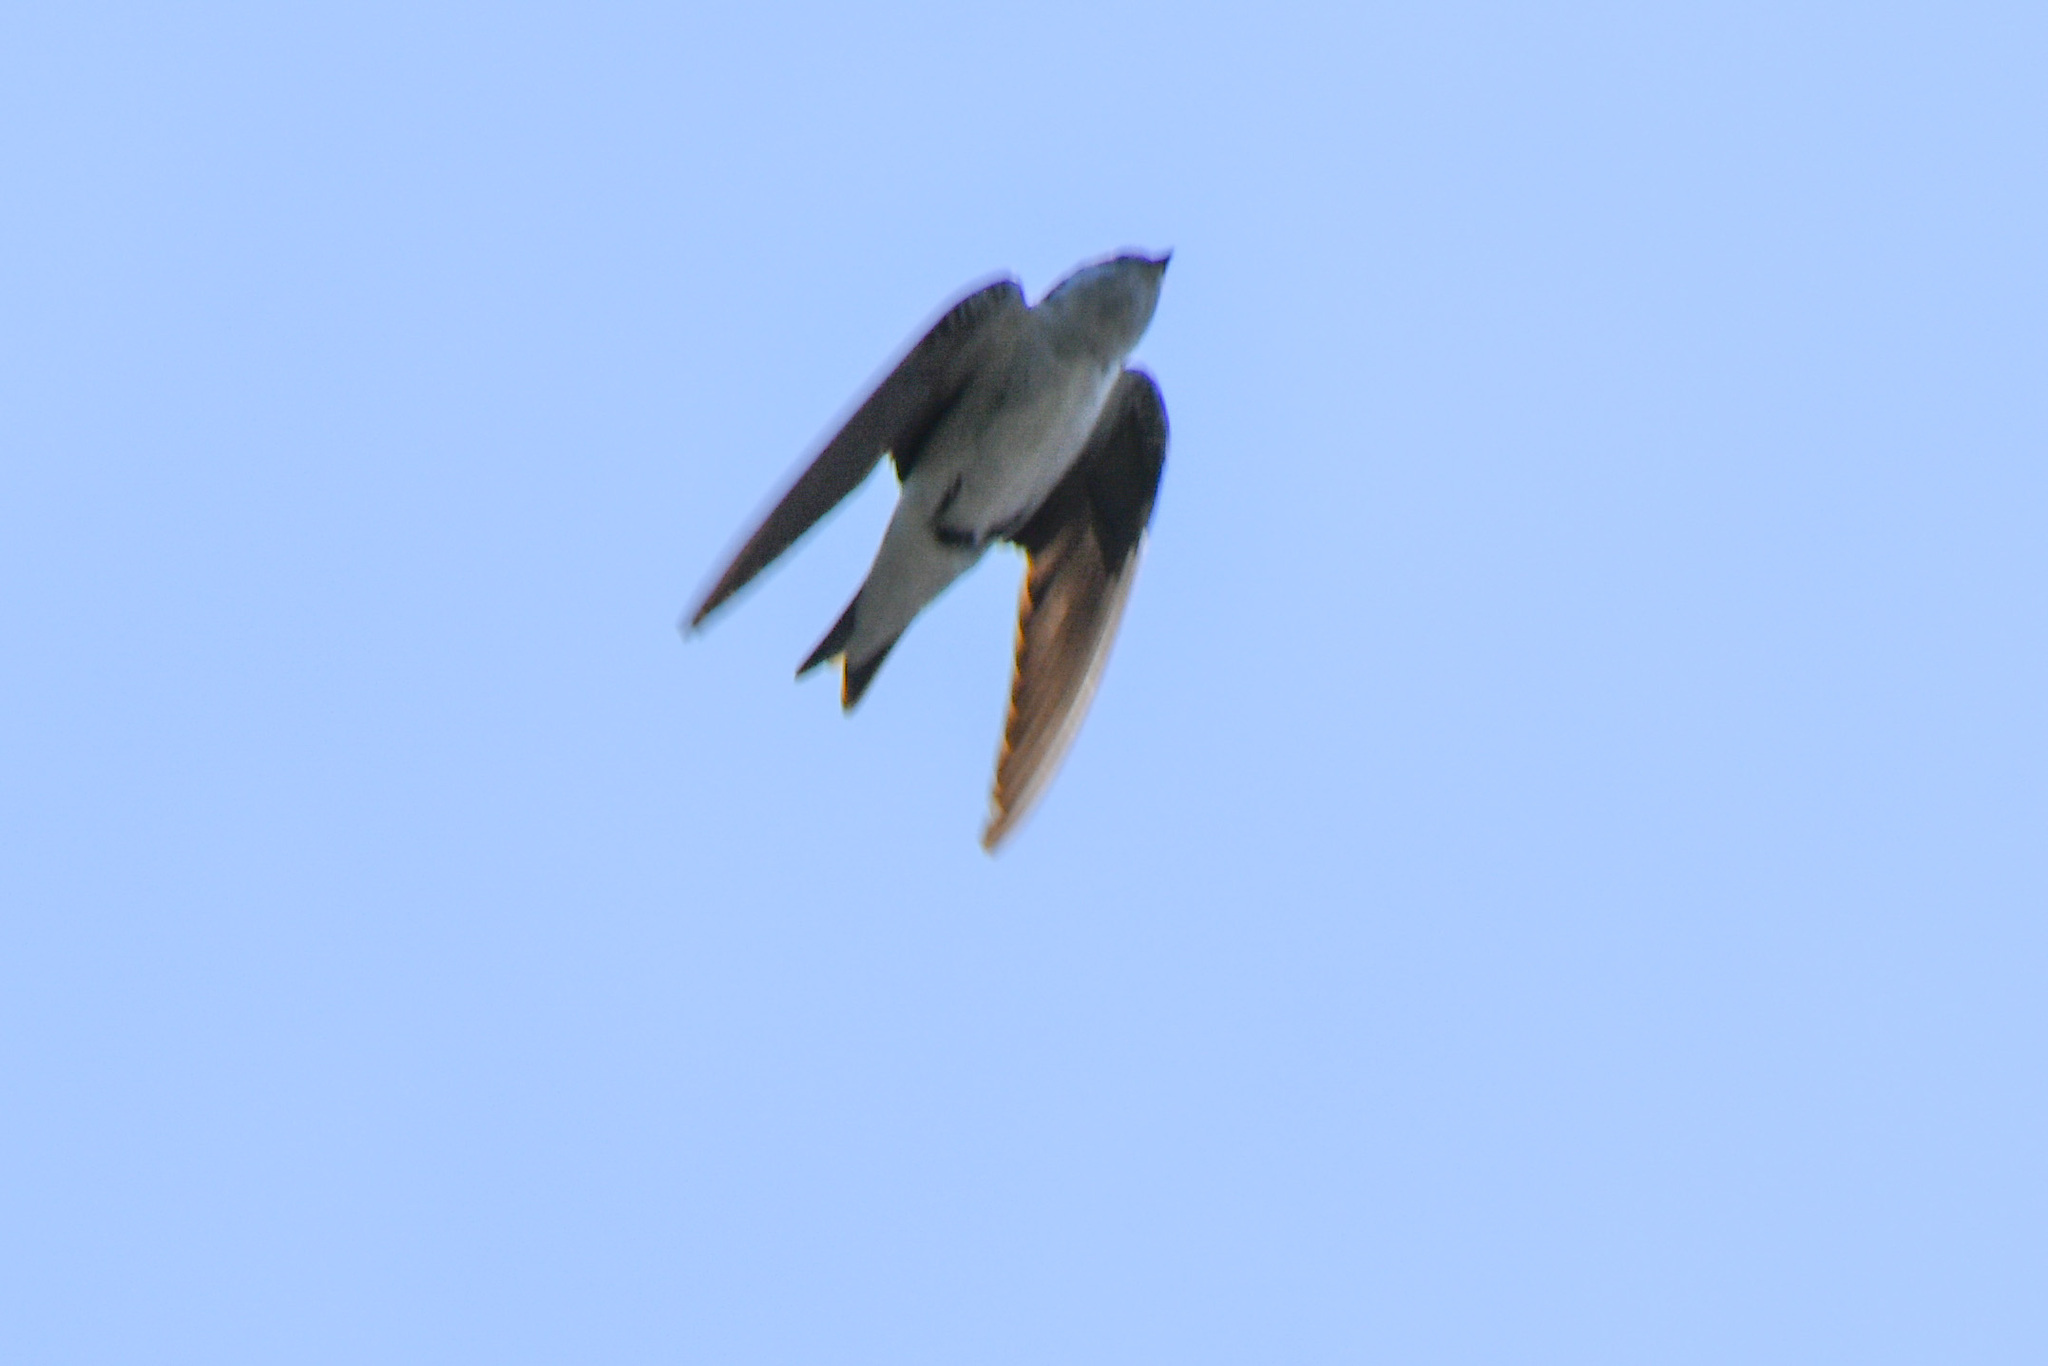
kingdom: Animalia
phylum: Chordata
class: Aves
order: Passeriformes
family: Hirundinidae
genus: Tachycineta
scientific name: Tachycineta thalassina
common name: Violet-green swallow
